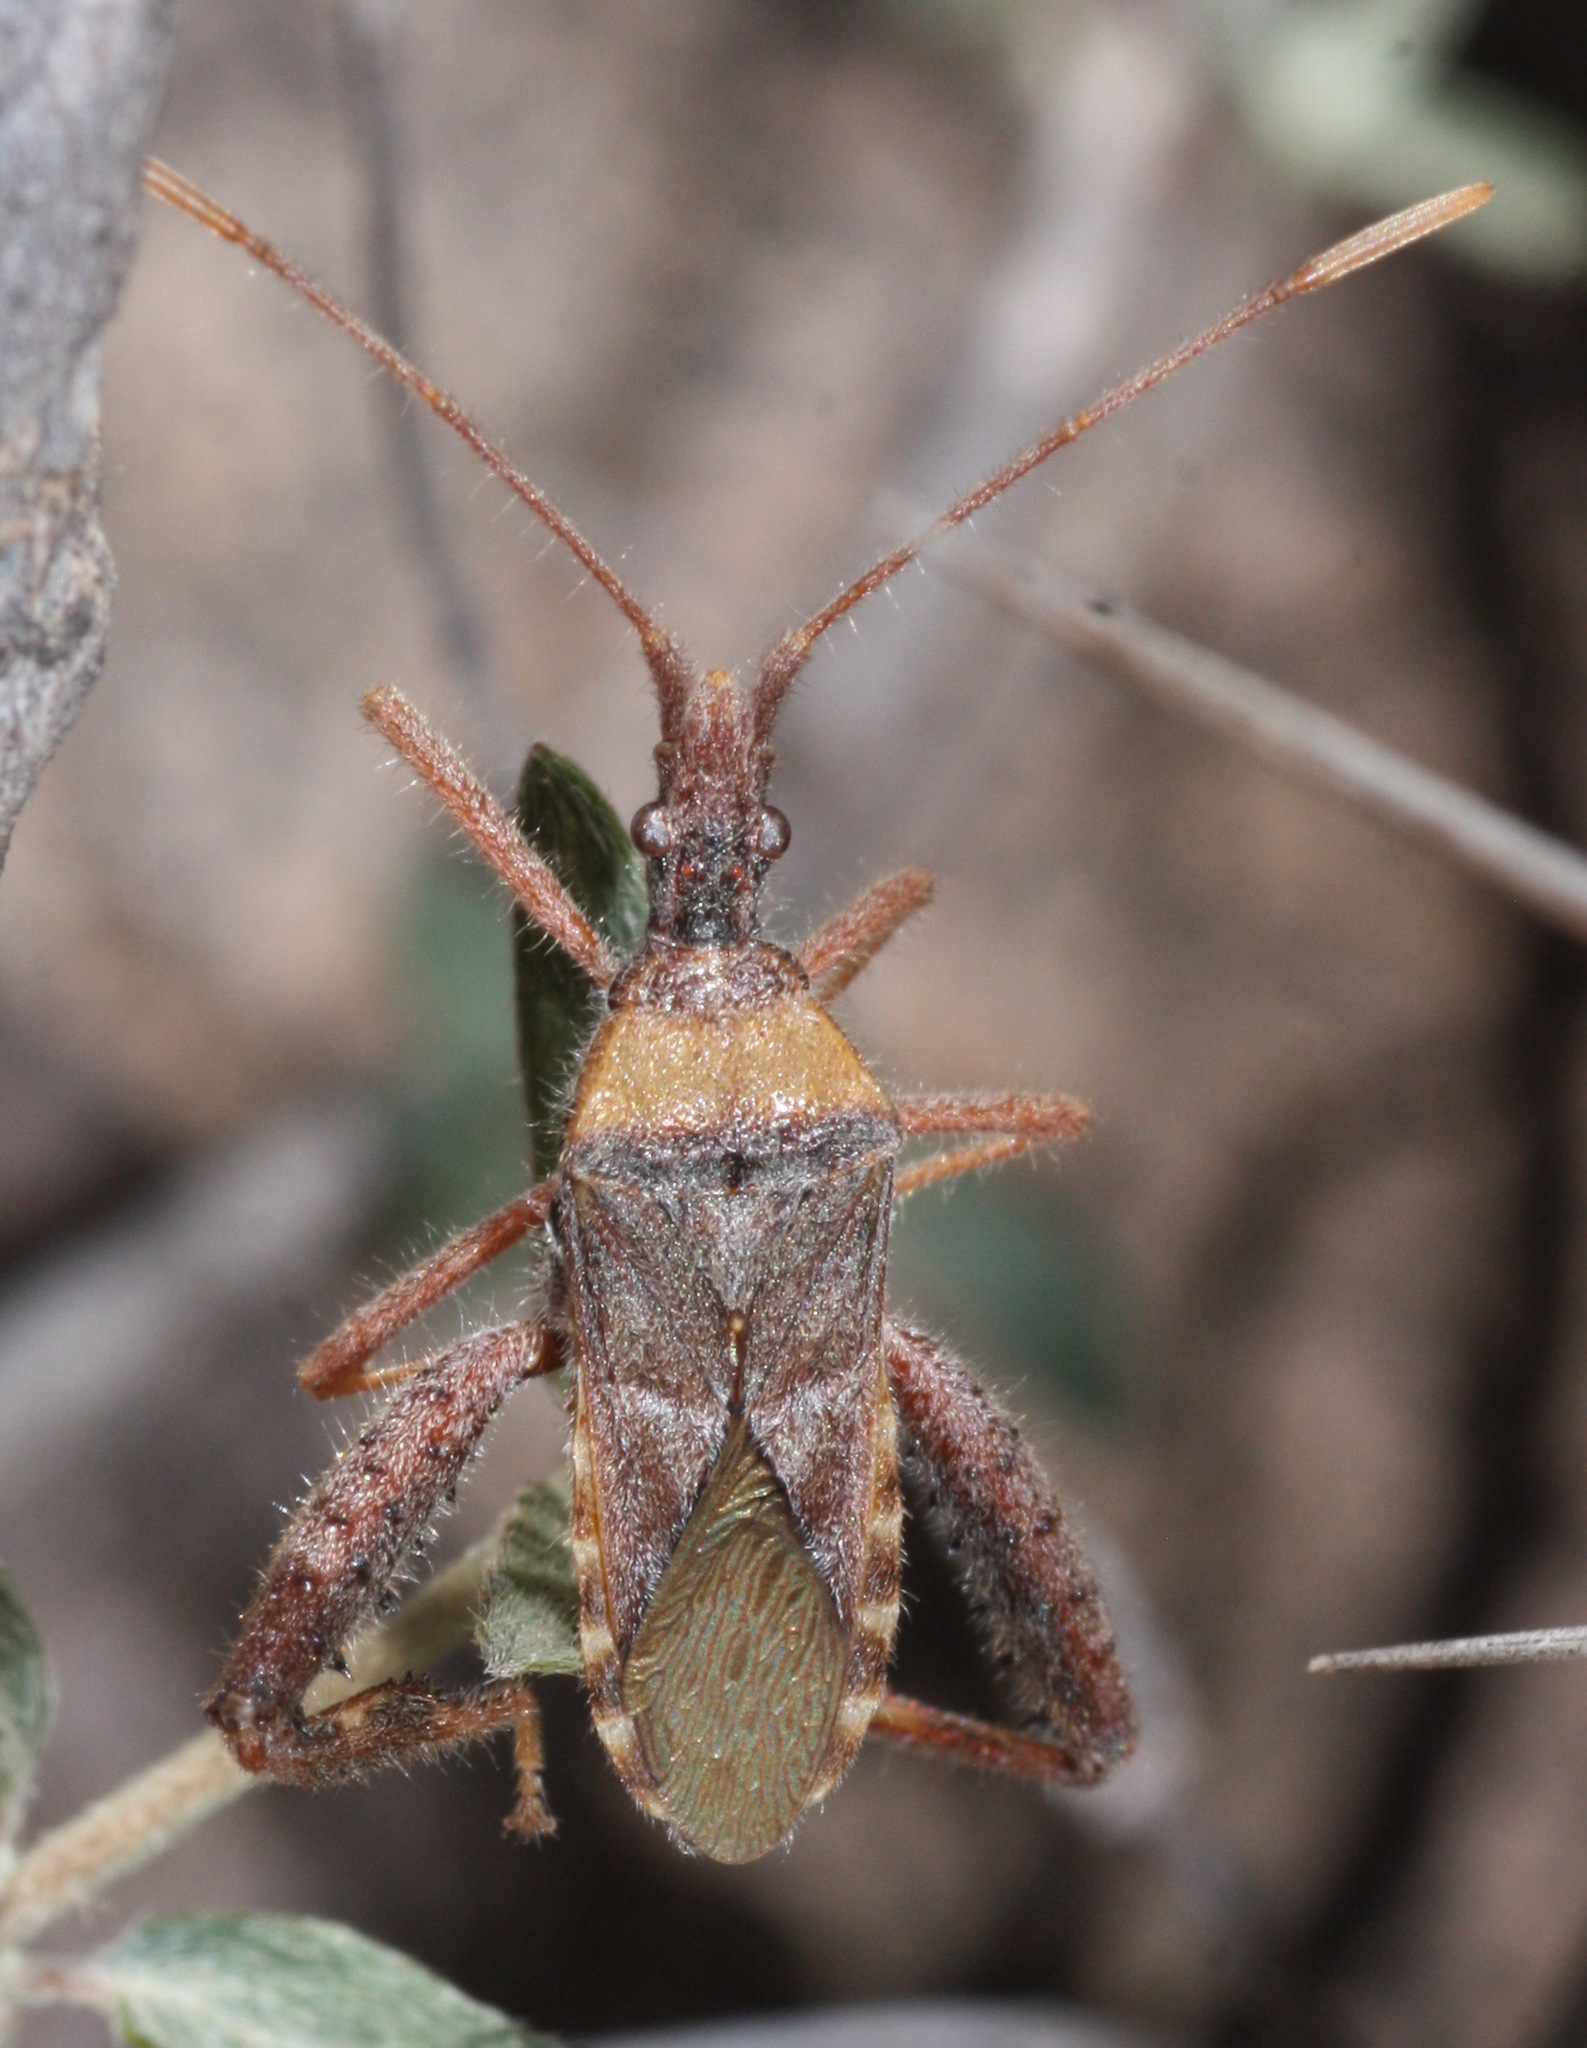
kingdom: Animalia
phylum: Arthropoda
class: Insecta
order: Hemiptera
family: Coreidae
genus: Narnia
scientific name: Narnia femorata
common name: Leaf-footed cactus bug
